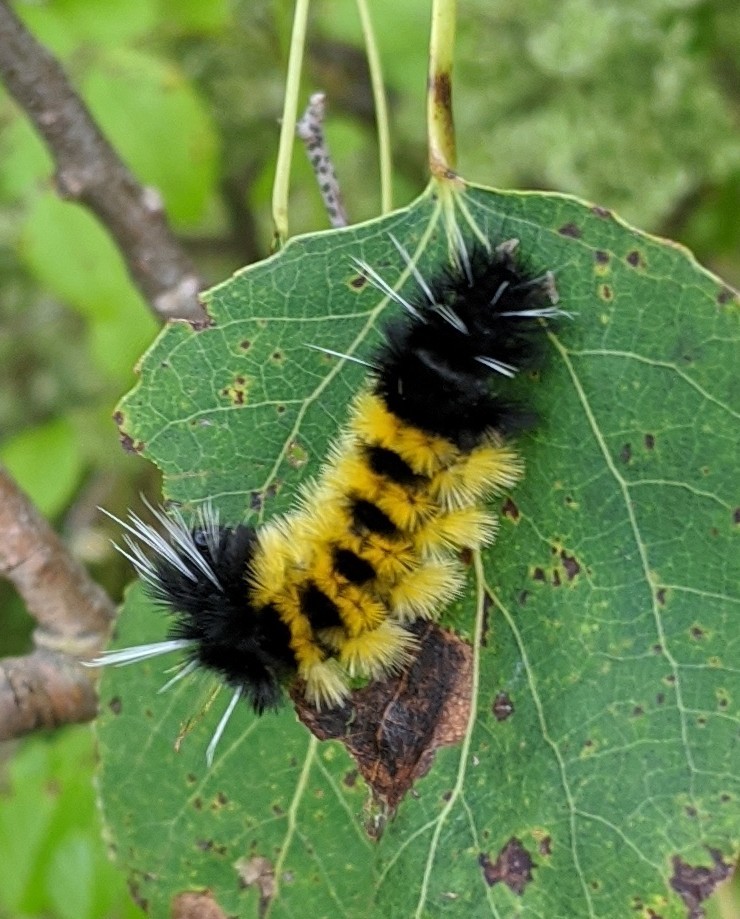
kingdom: Animalia
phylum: Arthropoda
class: Insecta
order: Lepidoptera
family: Erebidae
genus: Lophocampa
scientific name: Lophocampa maculata
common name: Spotted tussock moth
